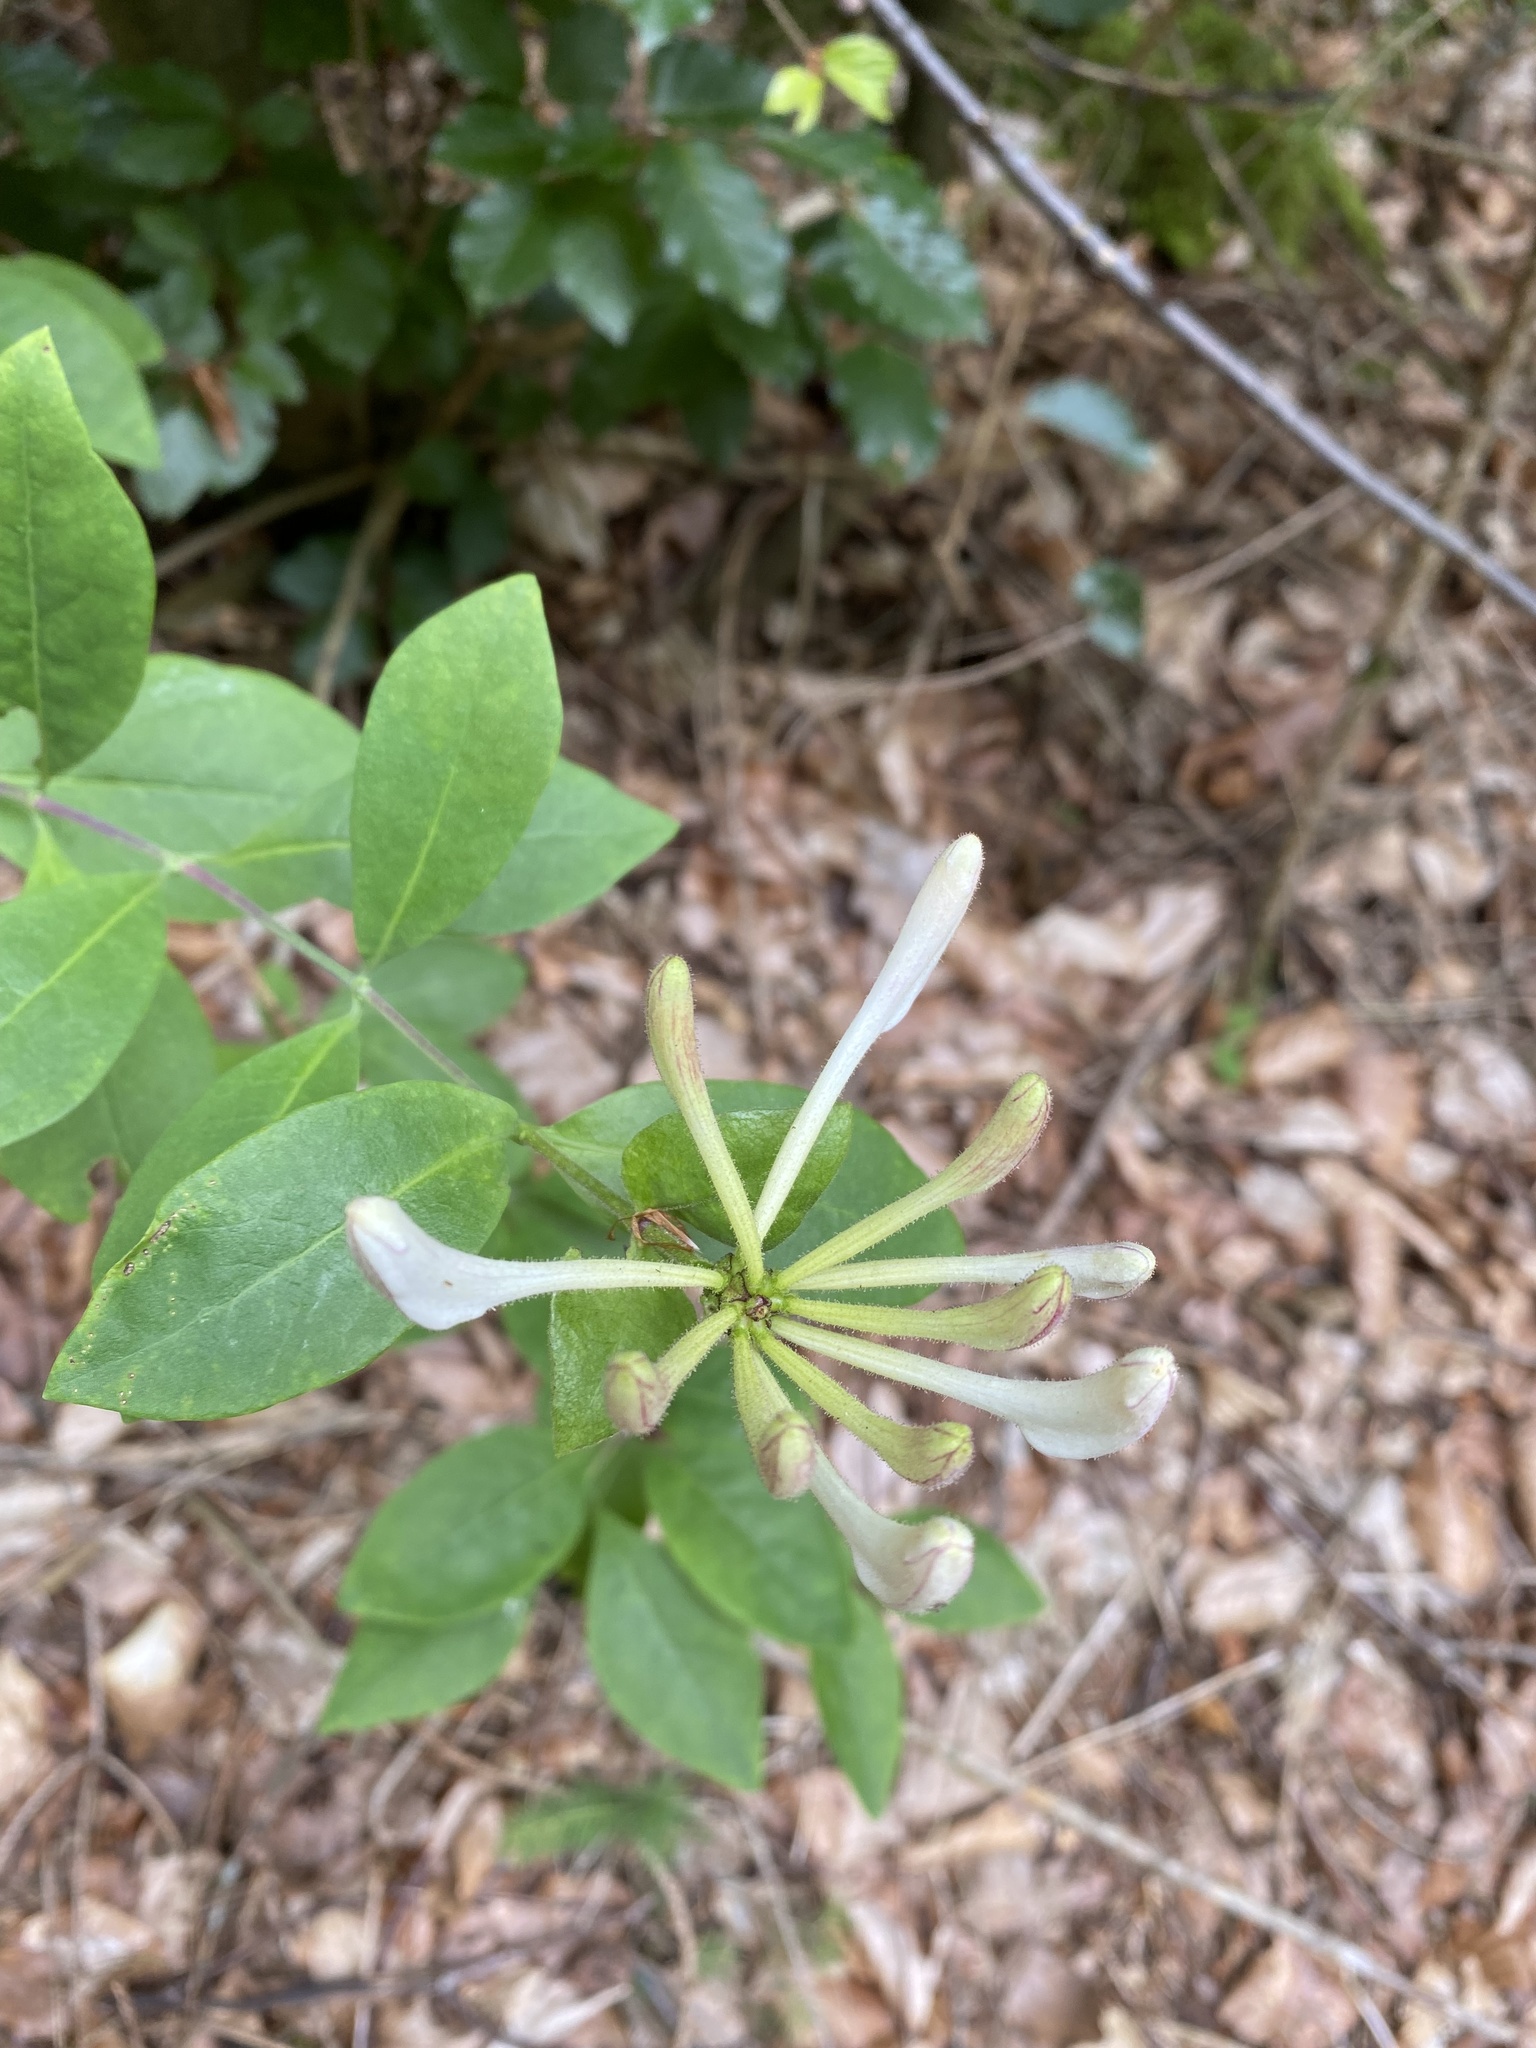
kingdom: Plantae
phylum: Tracheophyta
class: Magnoliopsida
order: Dipsacales
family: Caprifoliaceae
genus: Lonicera
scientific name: Lonicera periclymenum
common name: European honeysuckle
